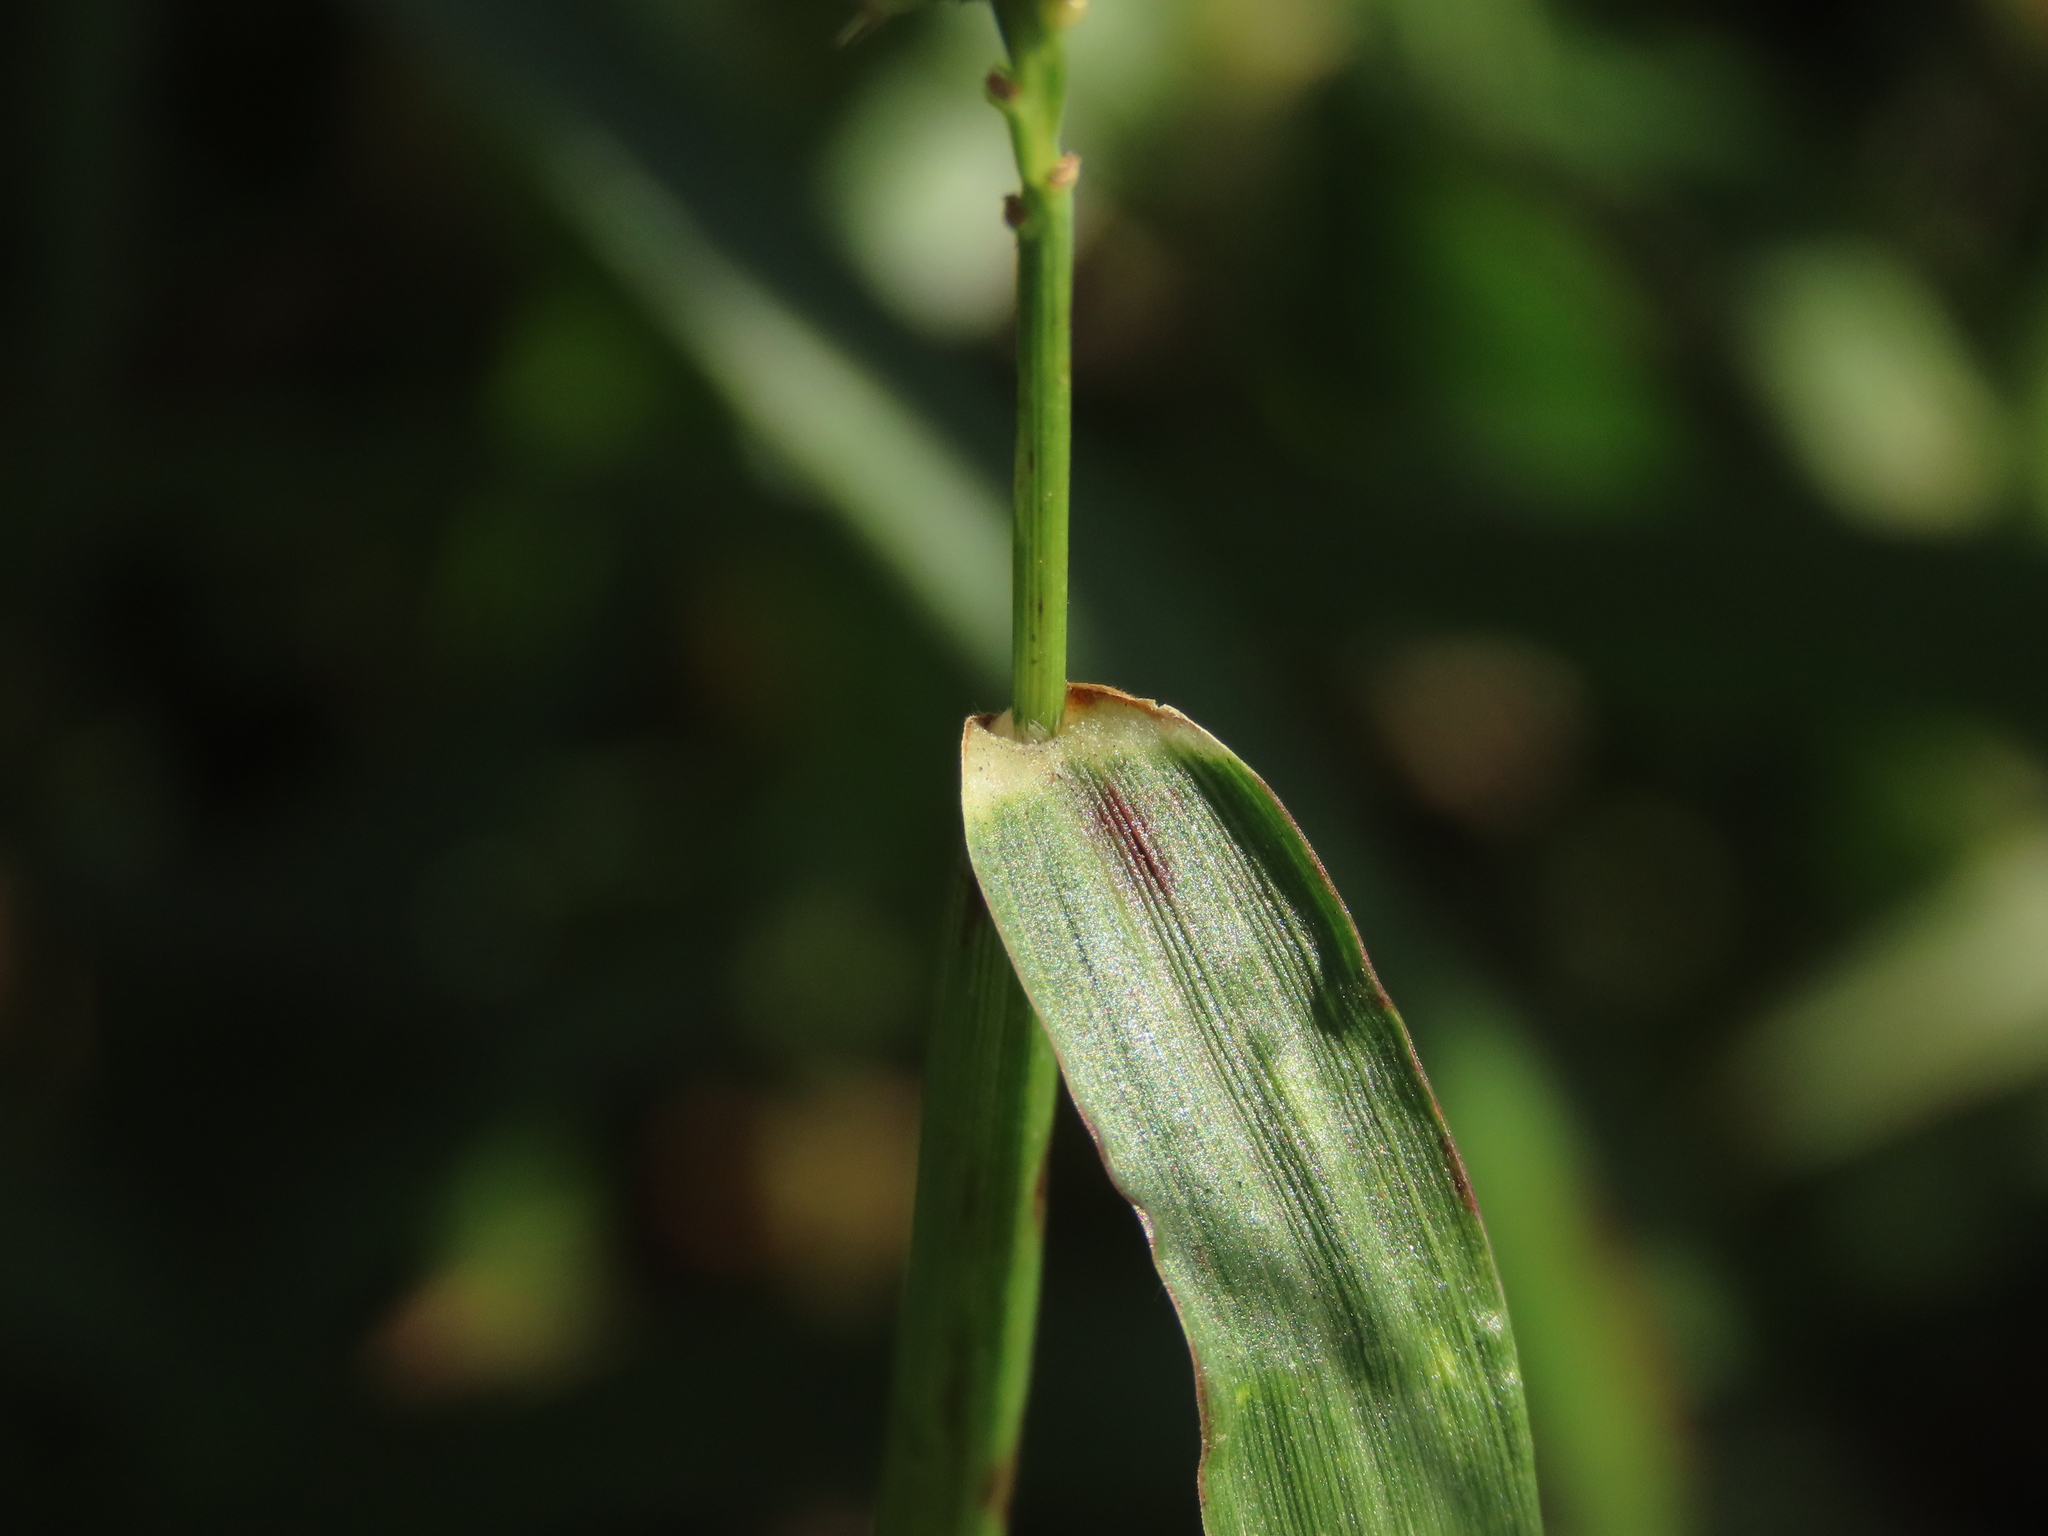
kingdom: Plantae
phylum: Tracheophyta
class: Liliopsida
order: Poales
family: Poaceae
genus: Cenchrus
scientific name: Cenchrus echinatus
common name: Southern sandbur
